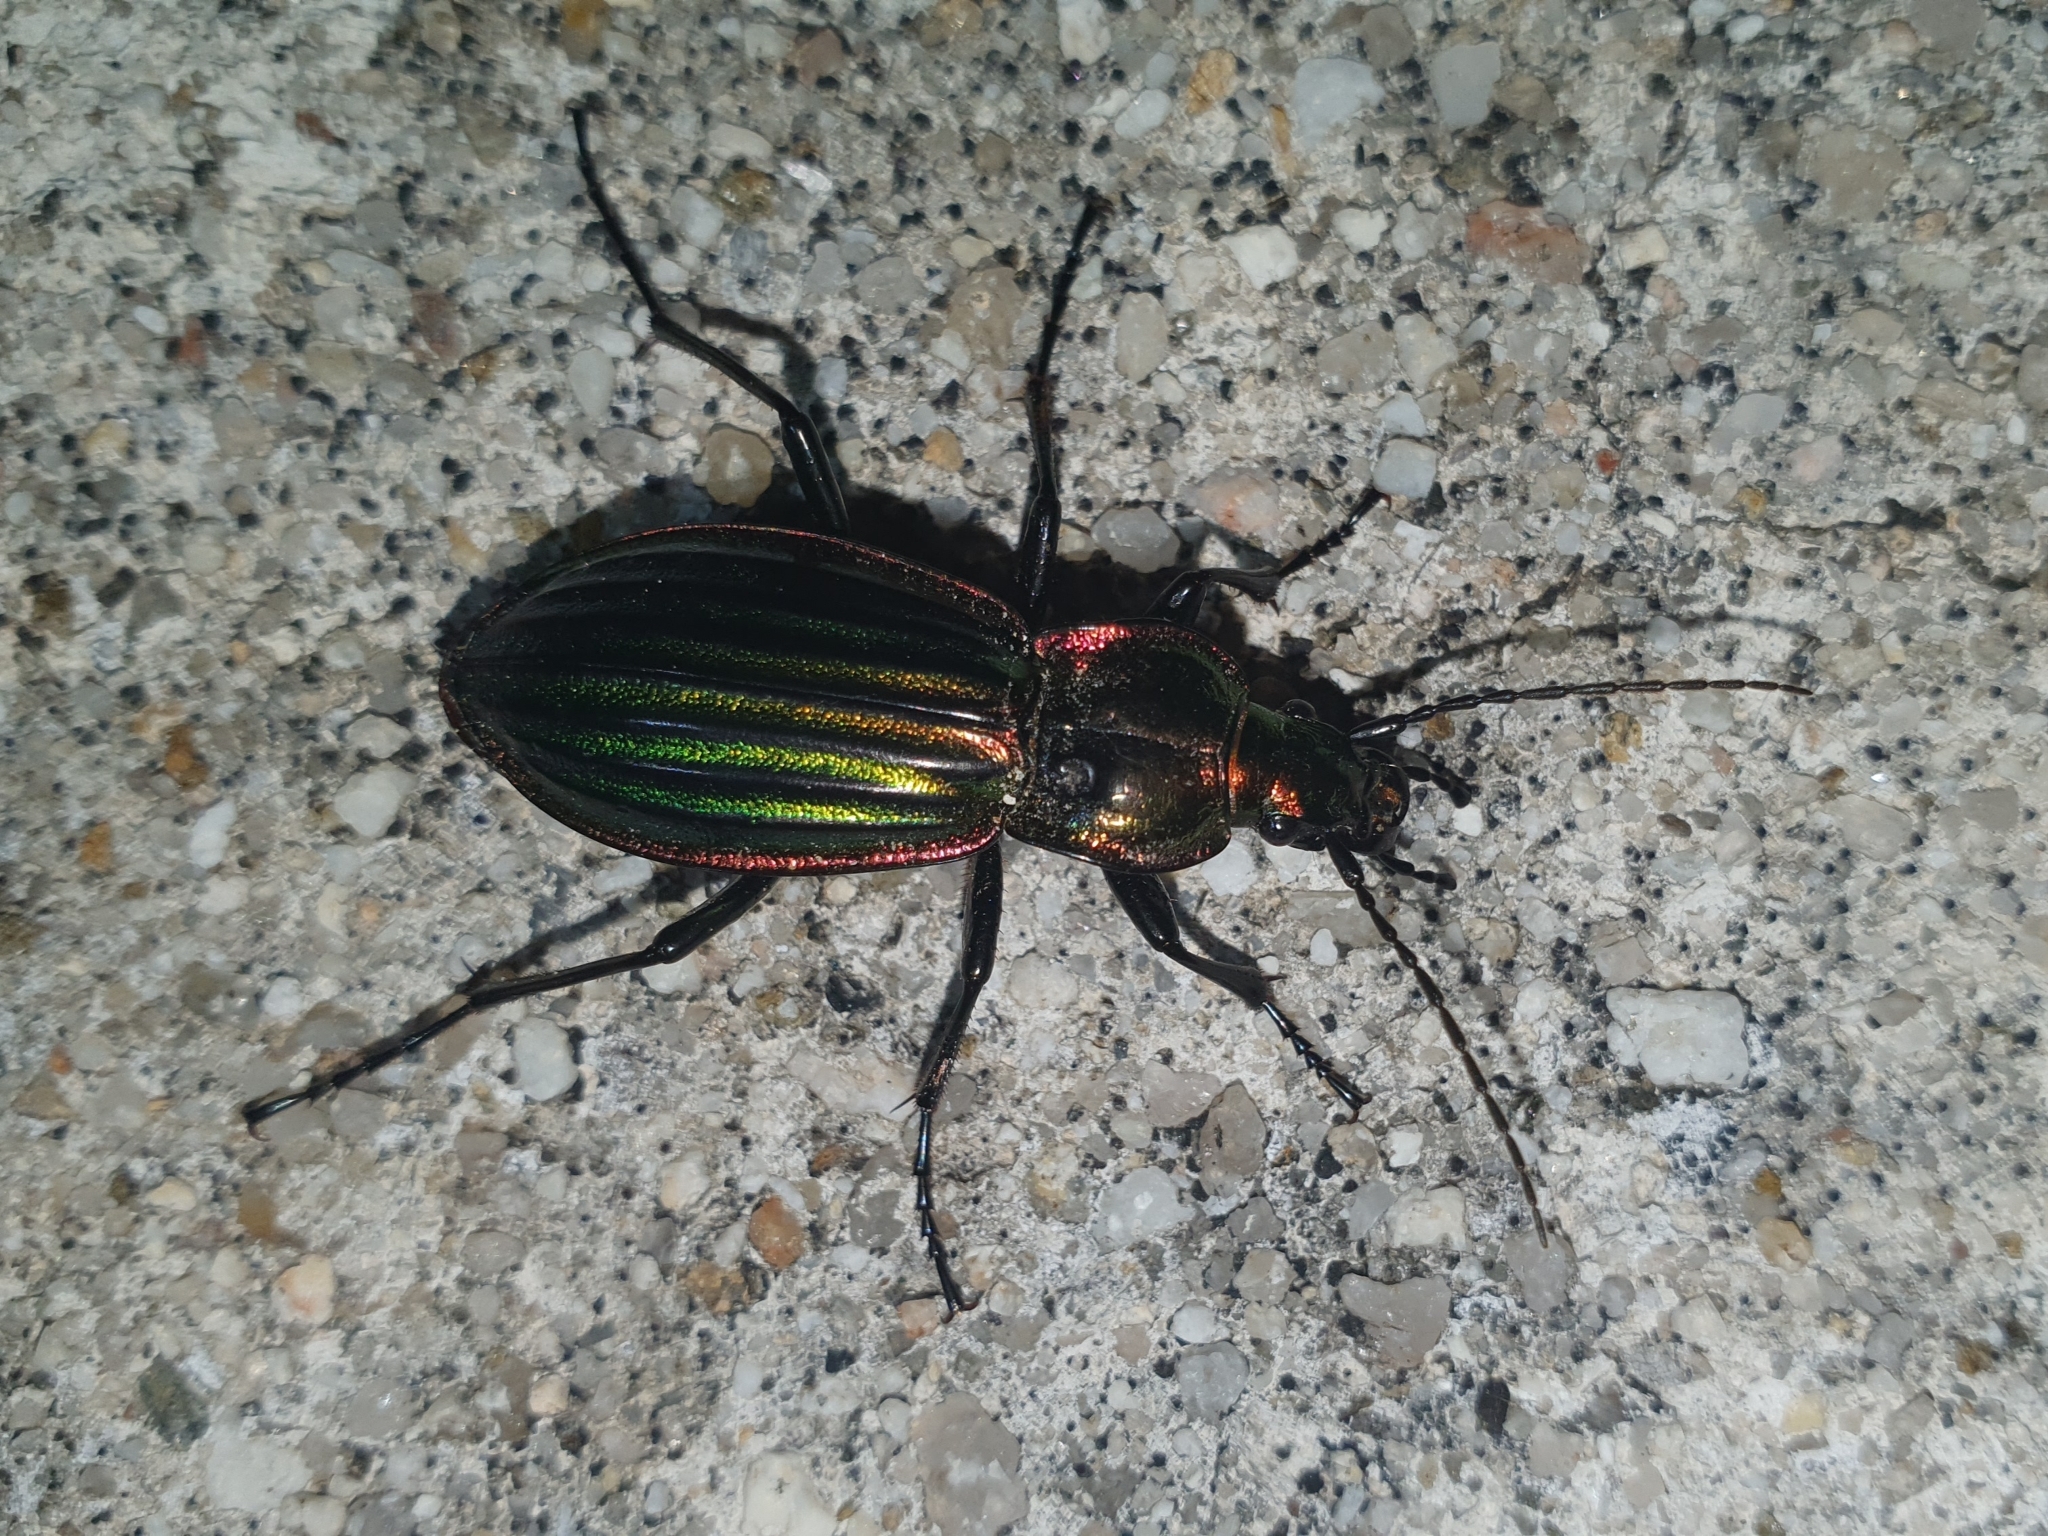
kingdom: Animalia
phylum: Arthropoda
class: Insecta
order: Coleoptera
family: Carabidae
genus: Carabus
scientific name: Carabus strasseri
